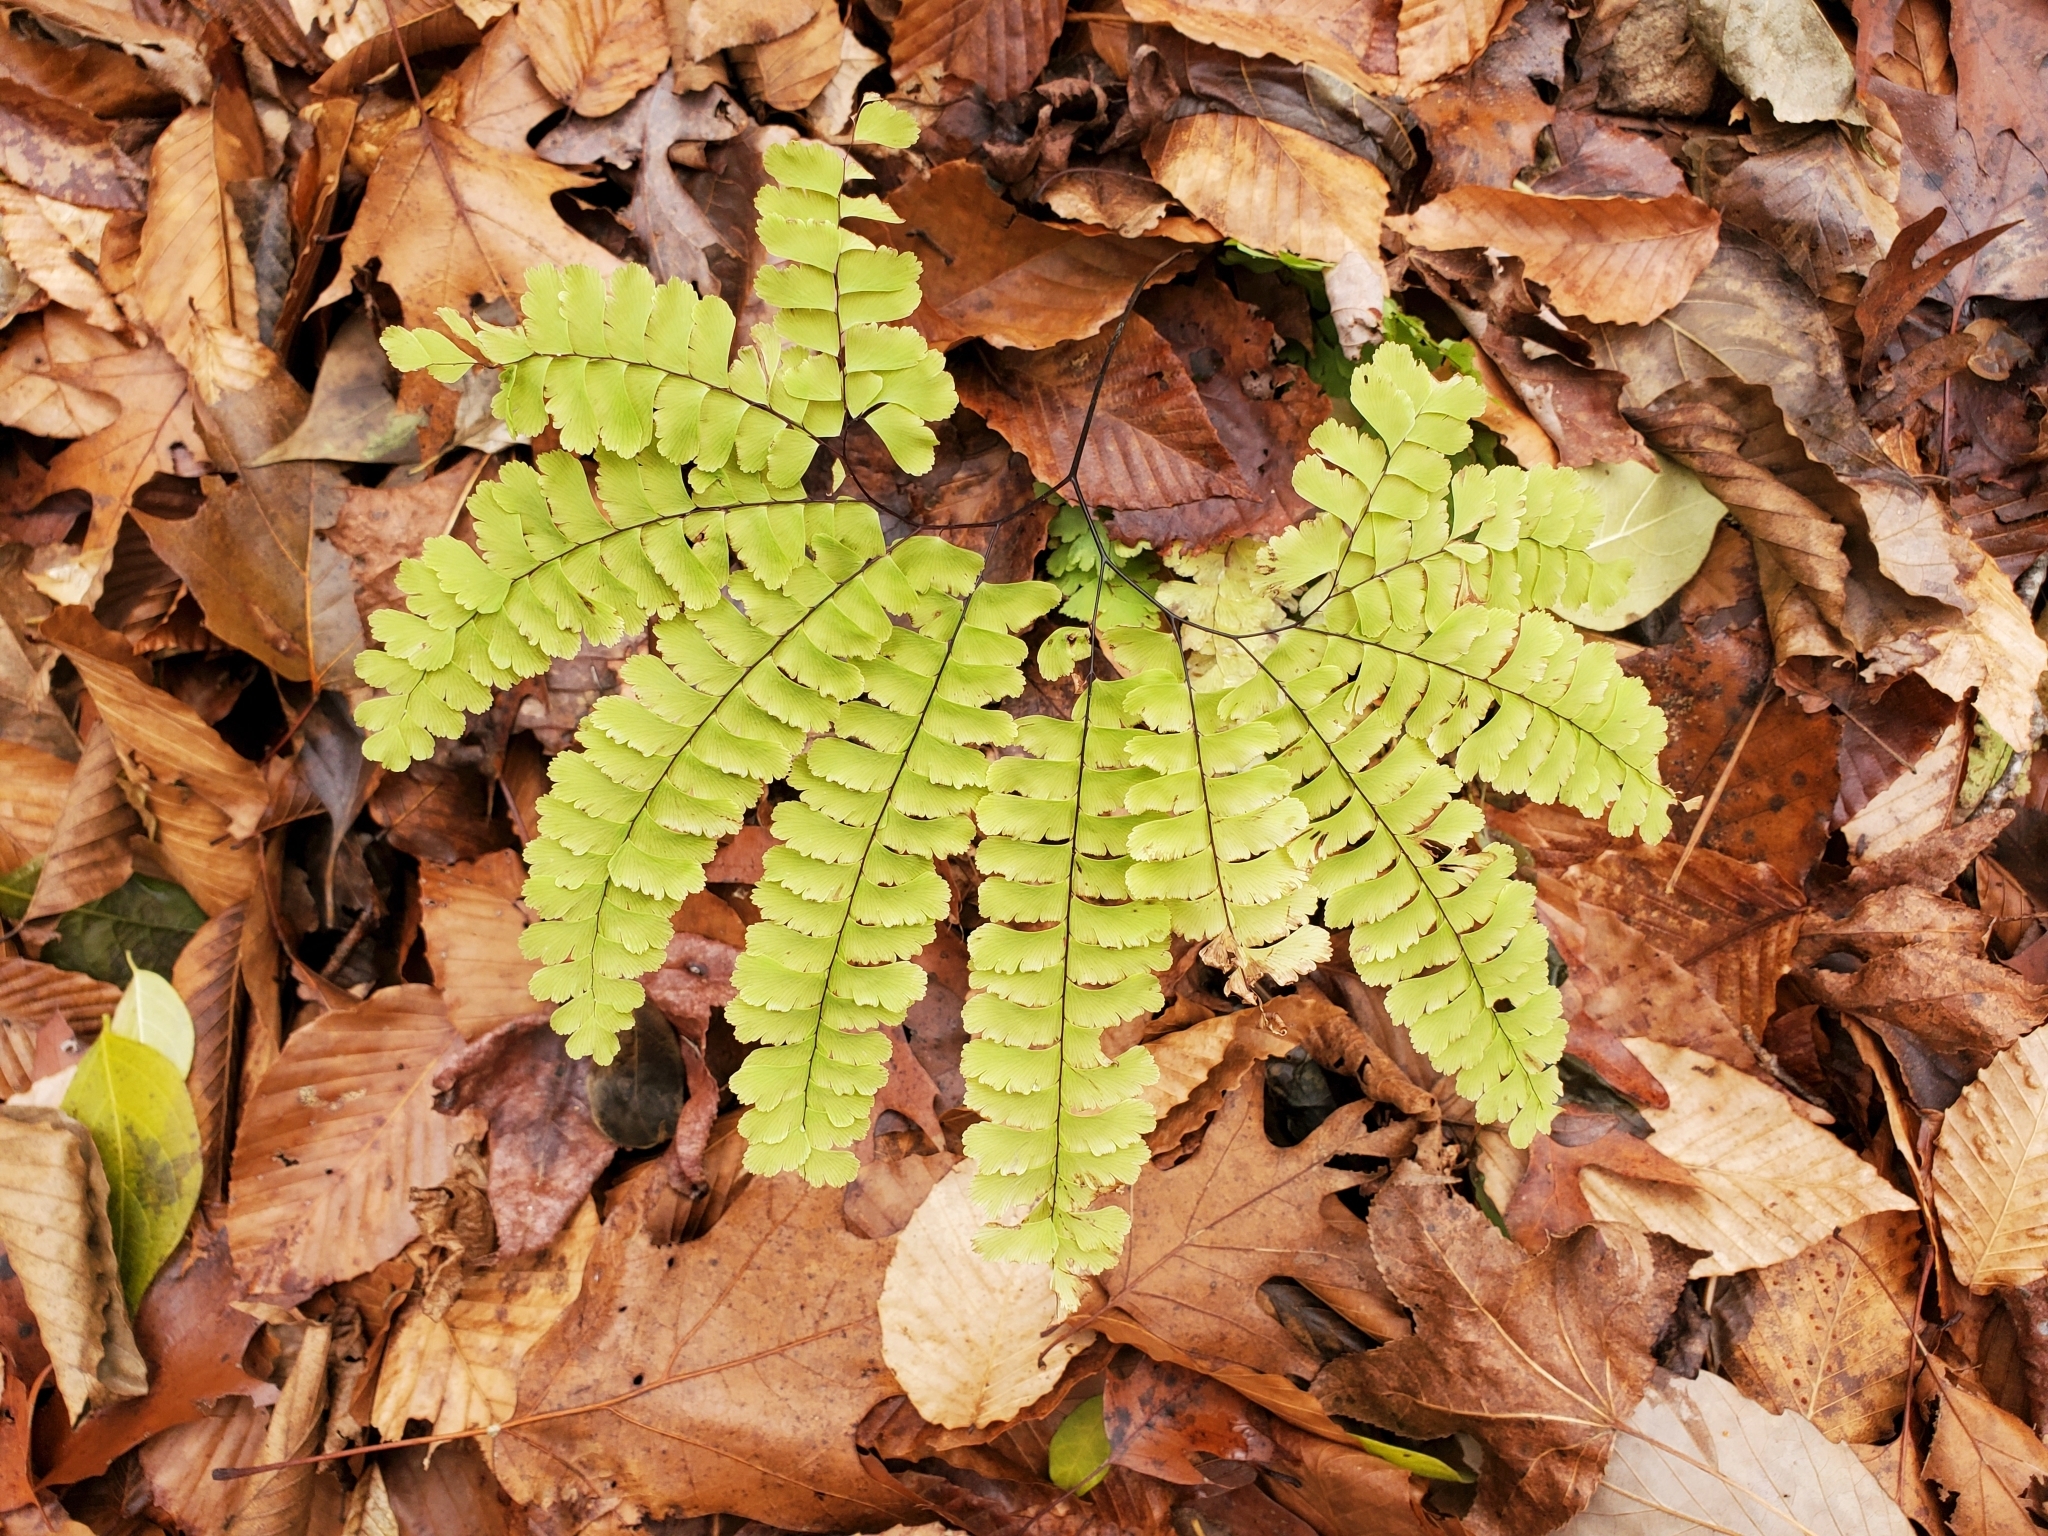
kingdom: Plantae
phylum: Tracheophyta
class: Polypodiopsida
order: Polypodiales
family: Pteridaceae
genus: Adiantum
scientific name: Adiantum pedatum
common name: Five-finger fern
